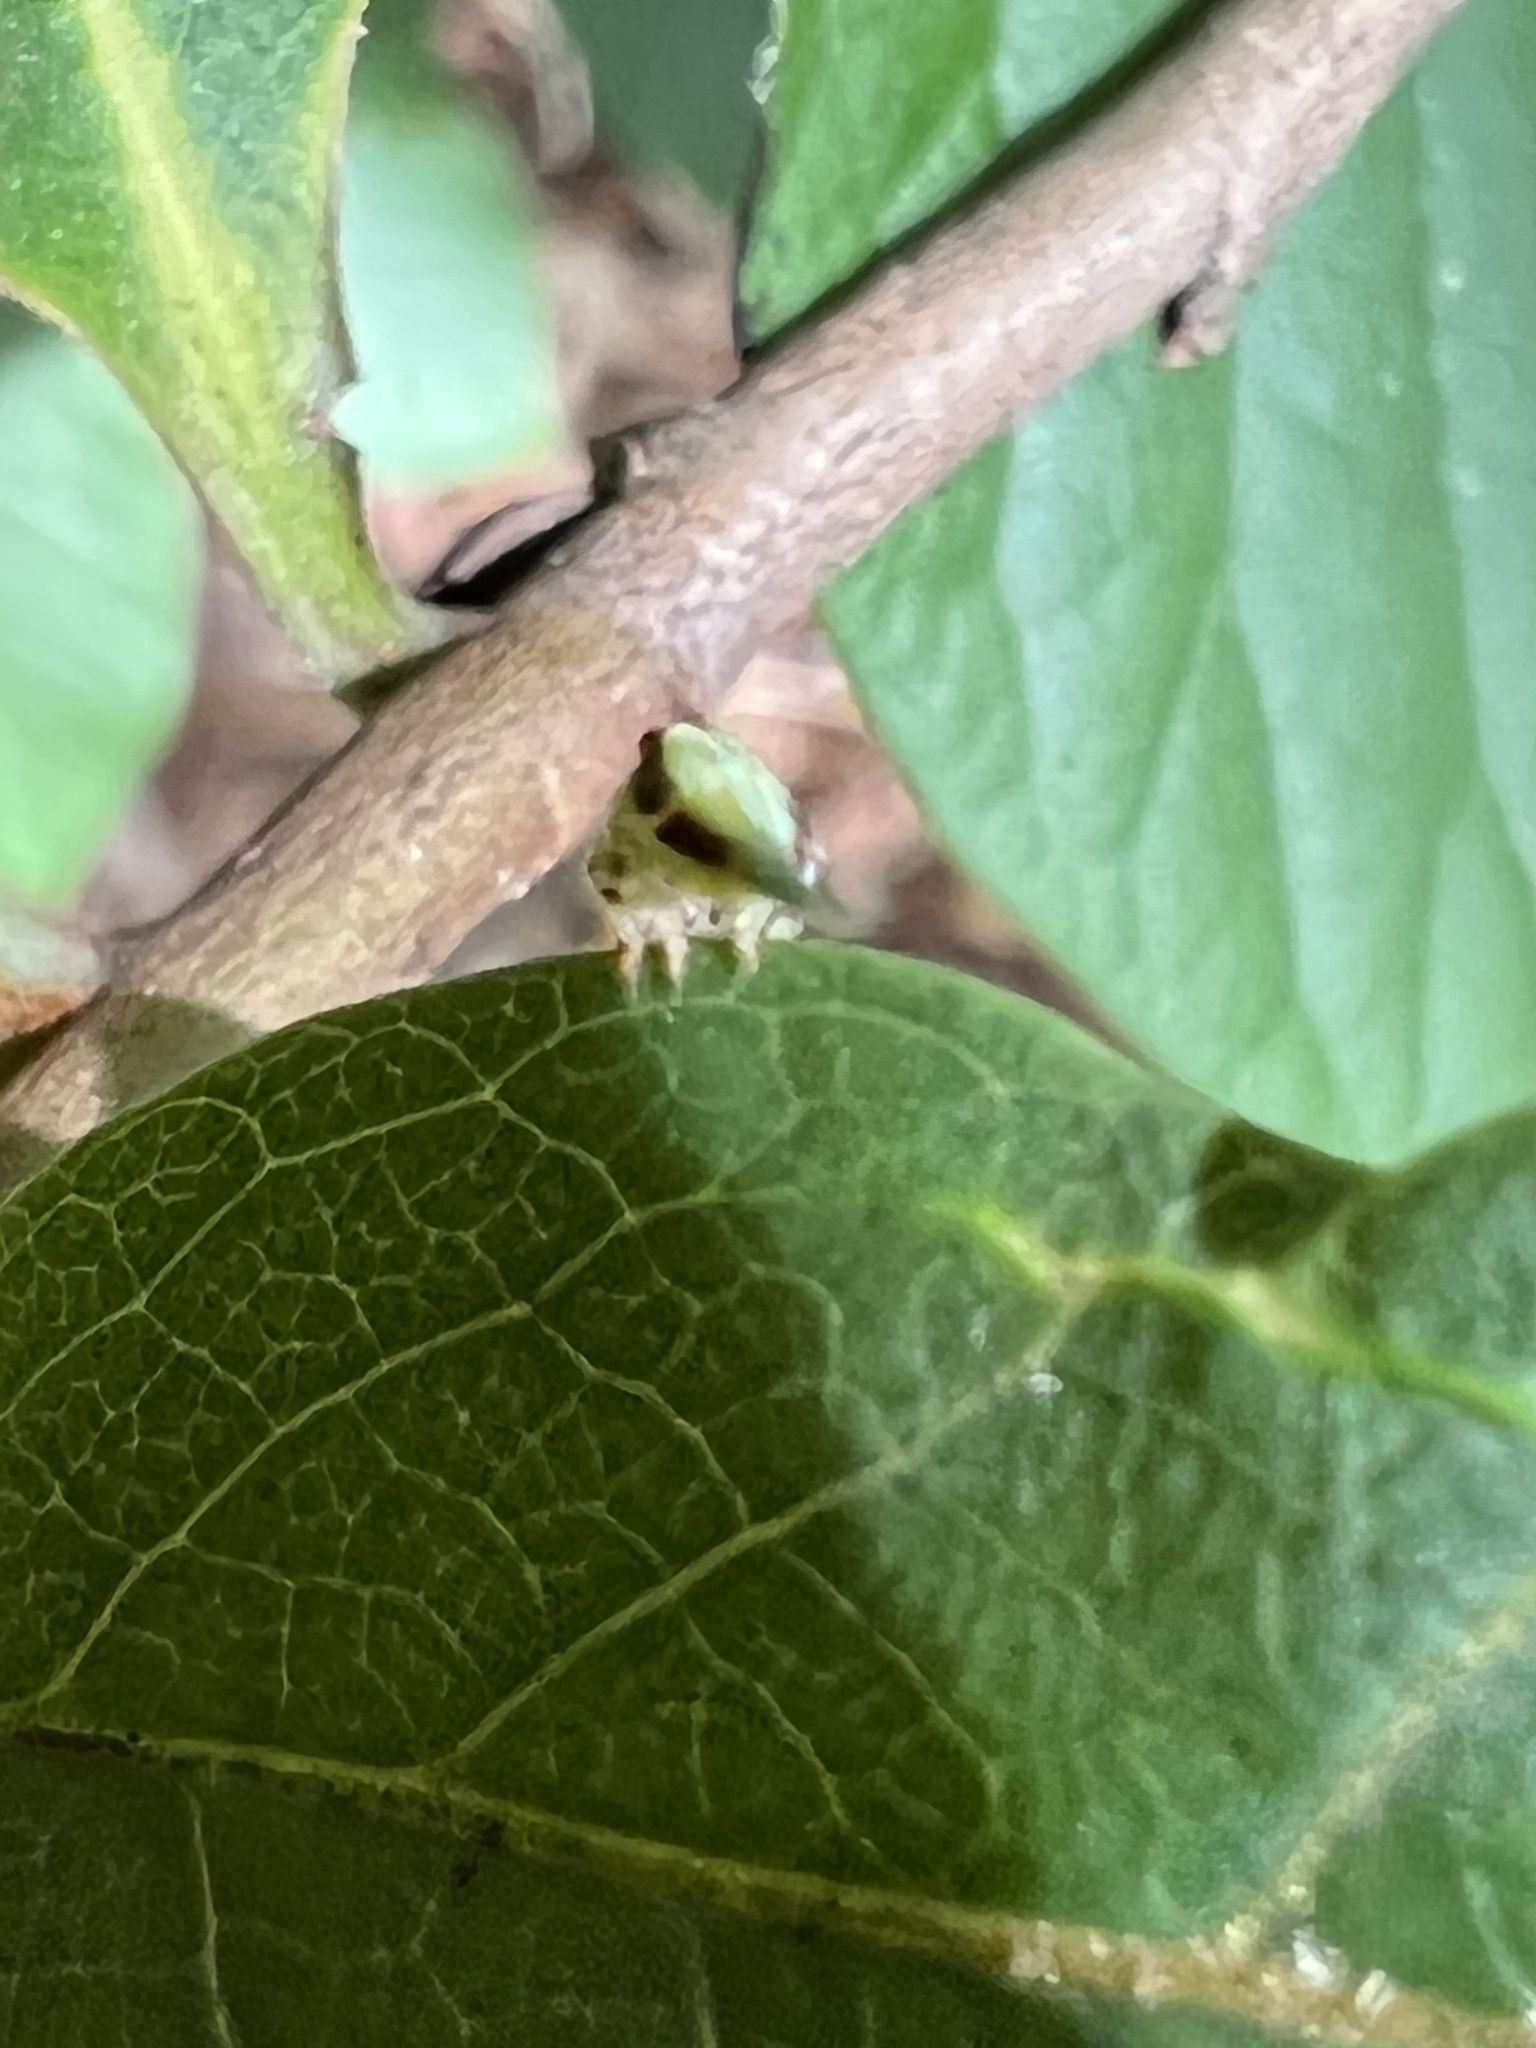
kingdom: Animalia
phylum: Arthropoda
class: Insecta
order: Hemiptera
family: Issidae
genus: Thionia
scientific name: Thionia bullata
